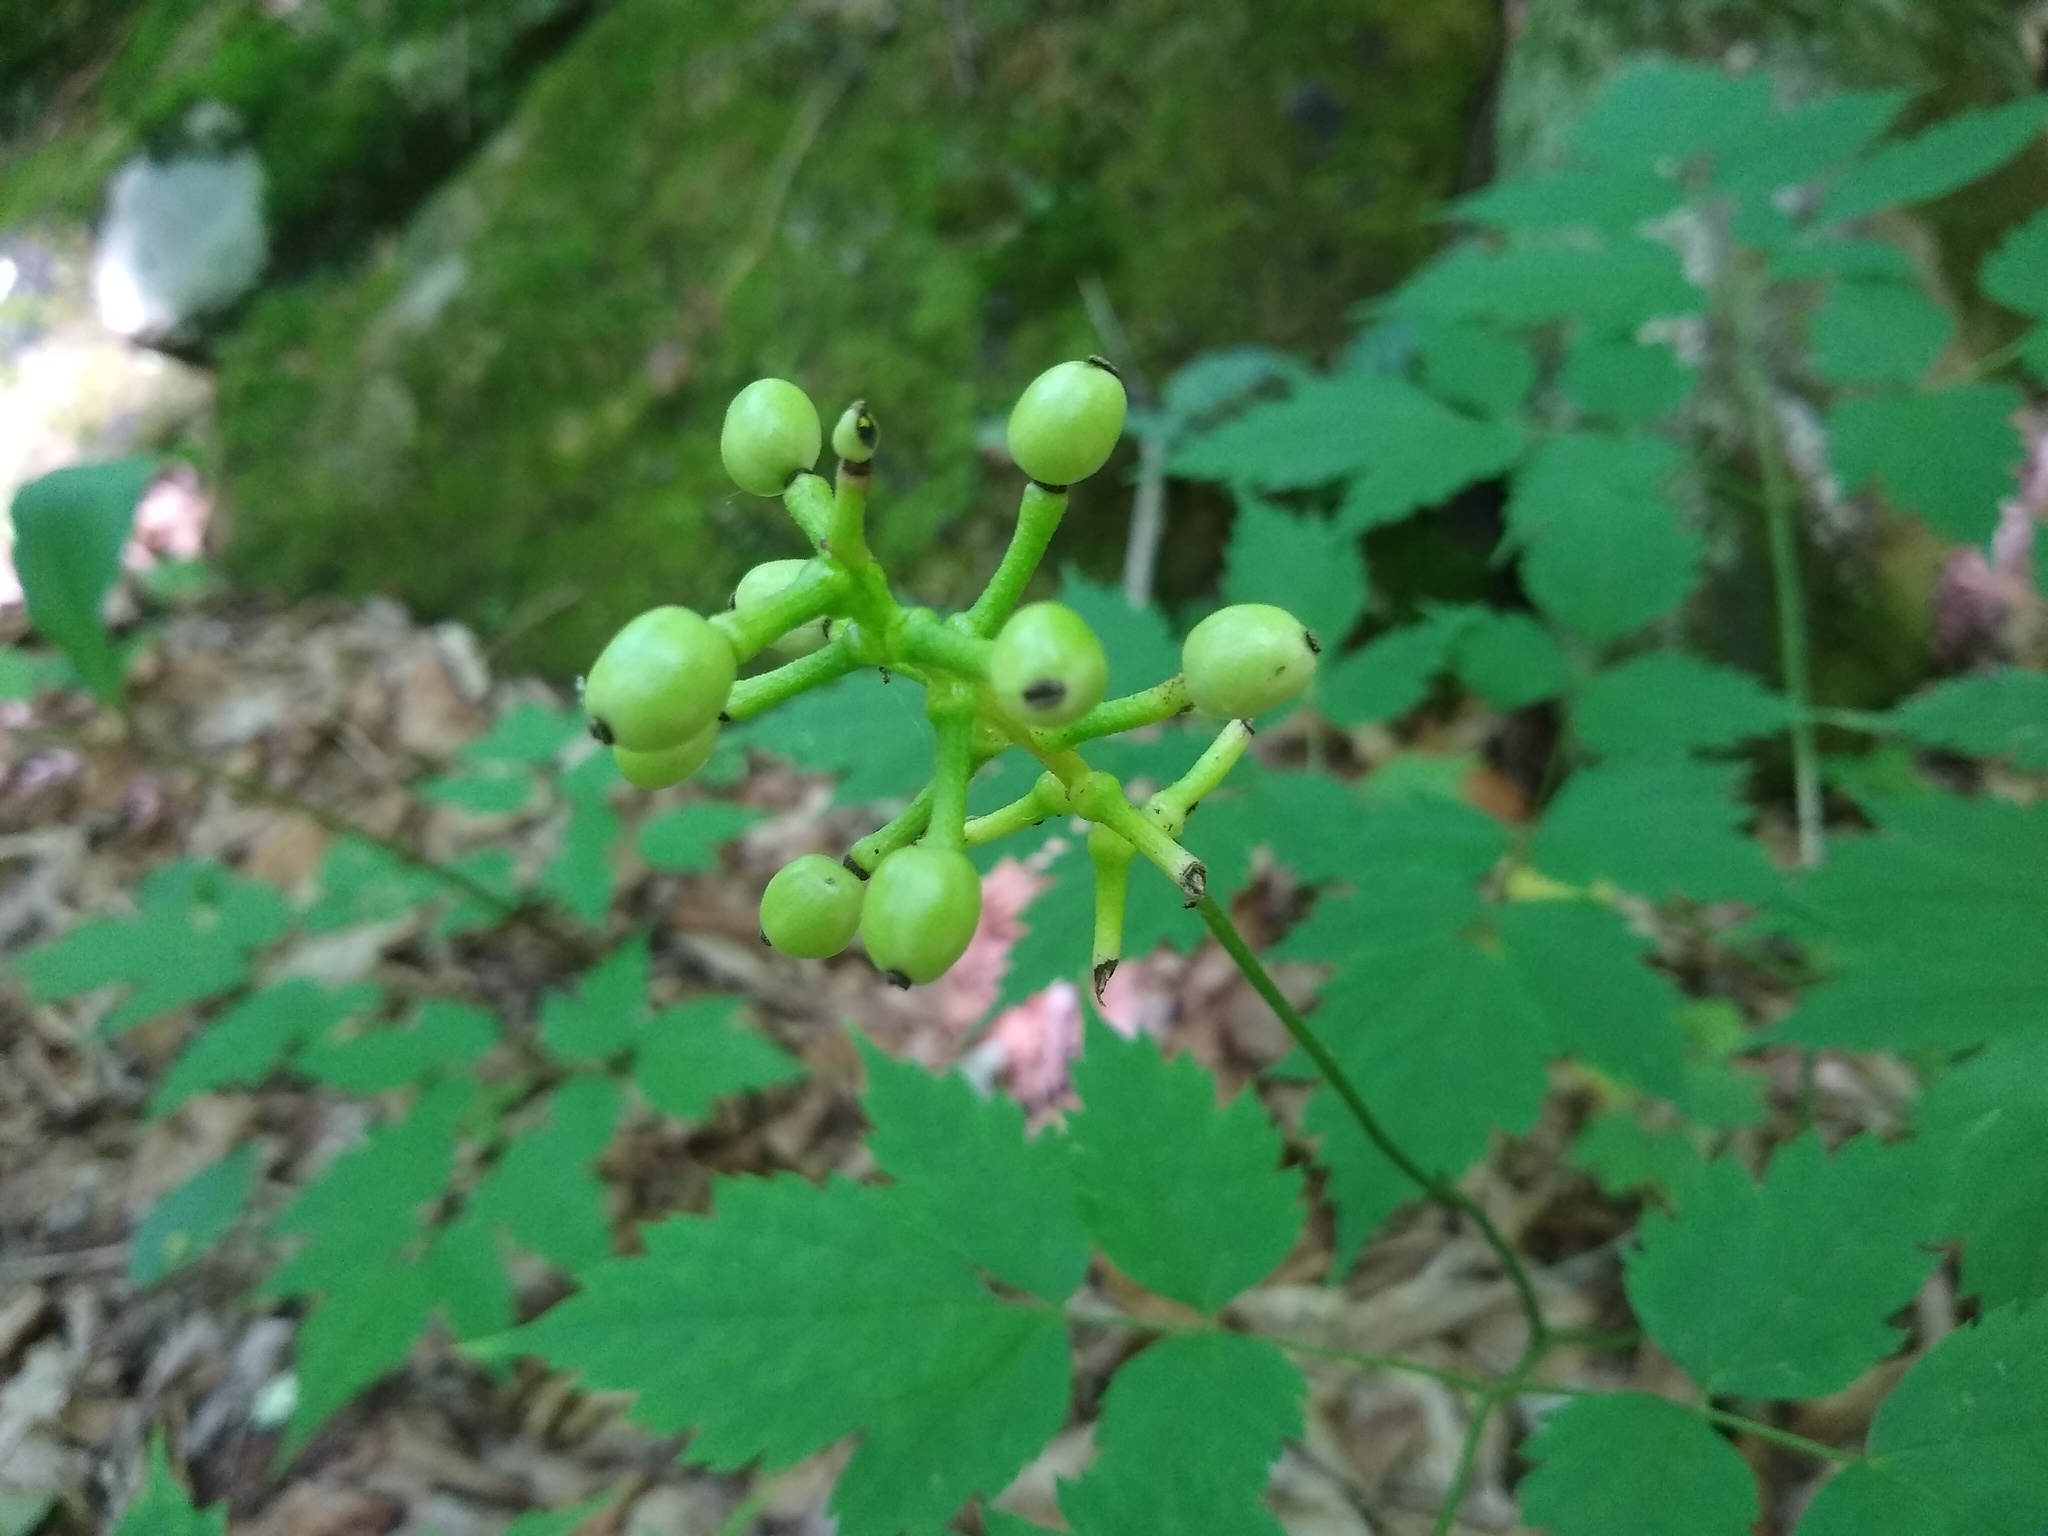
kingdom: Plantae
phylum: Tracheophyta
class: Magnoliopsida
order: Ranunculales
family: Ranunculaceae
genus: Actaea
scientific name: Actaea pachypoda
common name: Doll's-eyes
